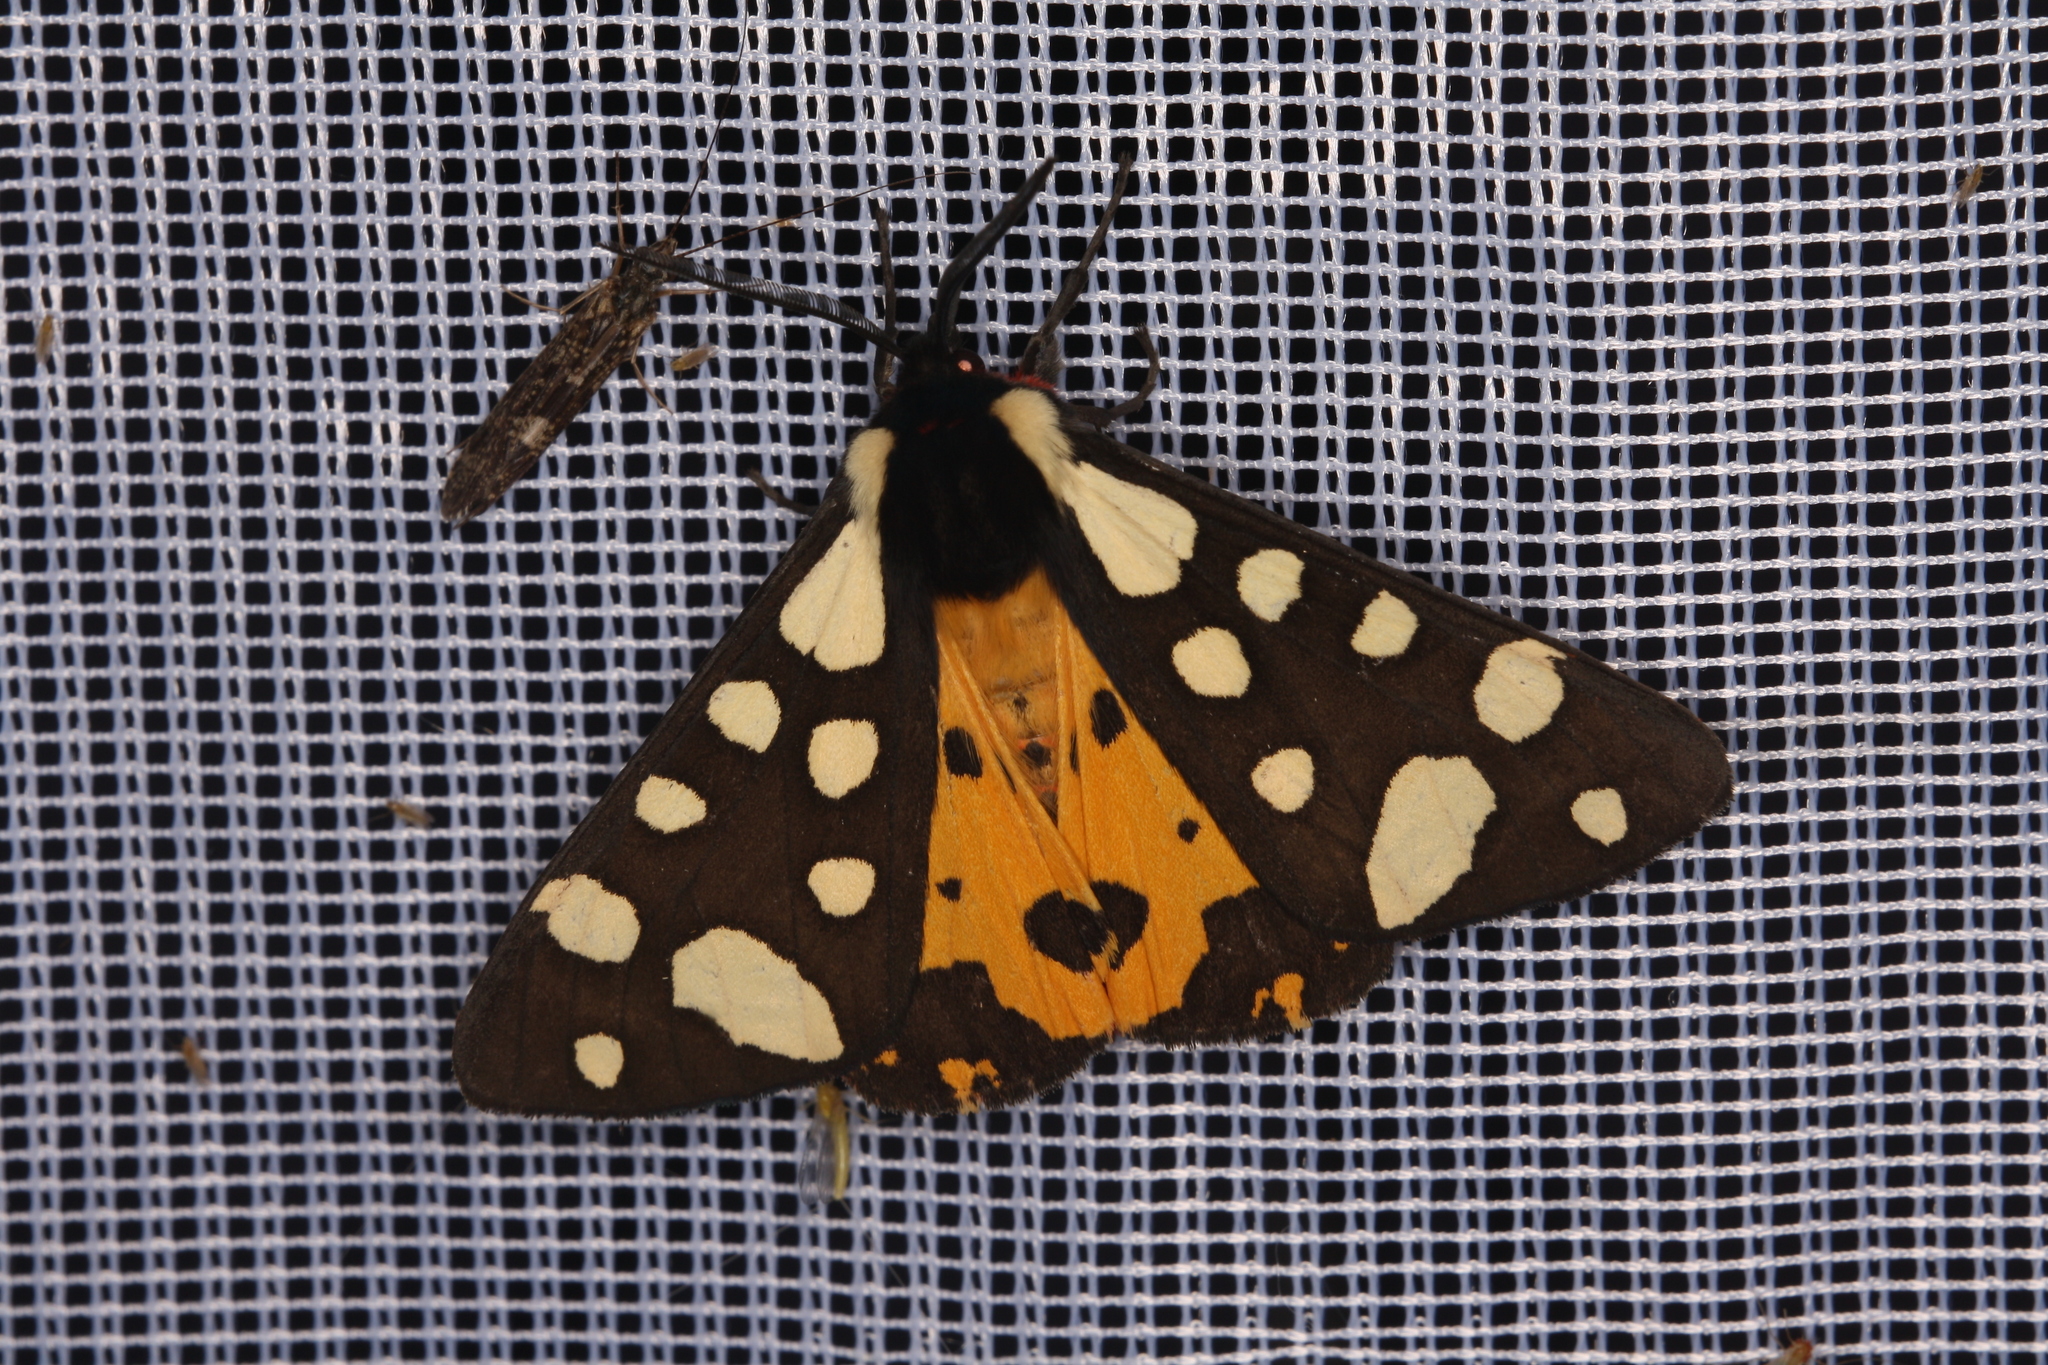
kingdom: Animalia
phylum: Arthropoda
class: Insecta
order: Lepidoptera
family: Erebidae
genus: Epicallia
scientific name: Epicallia villica
